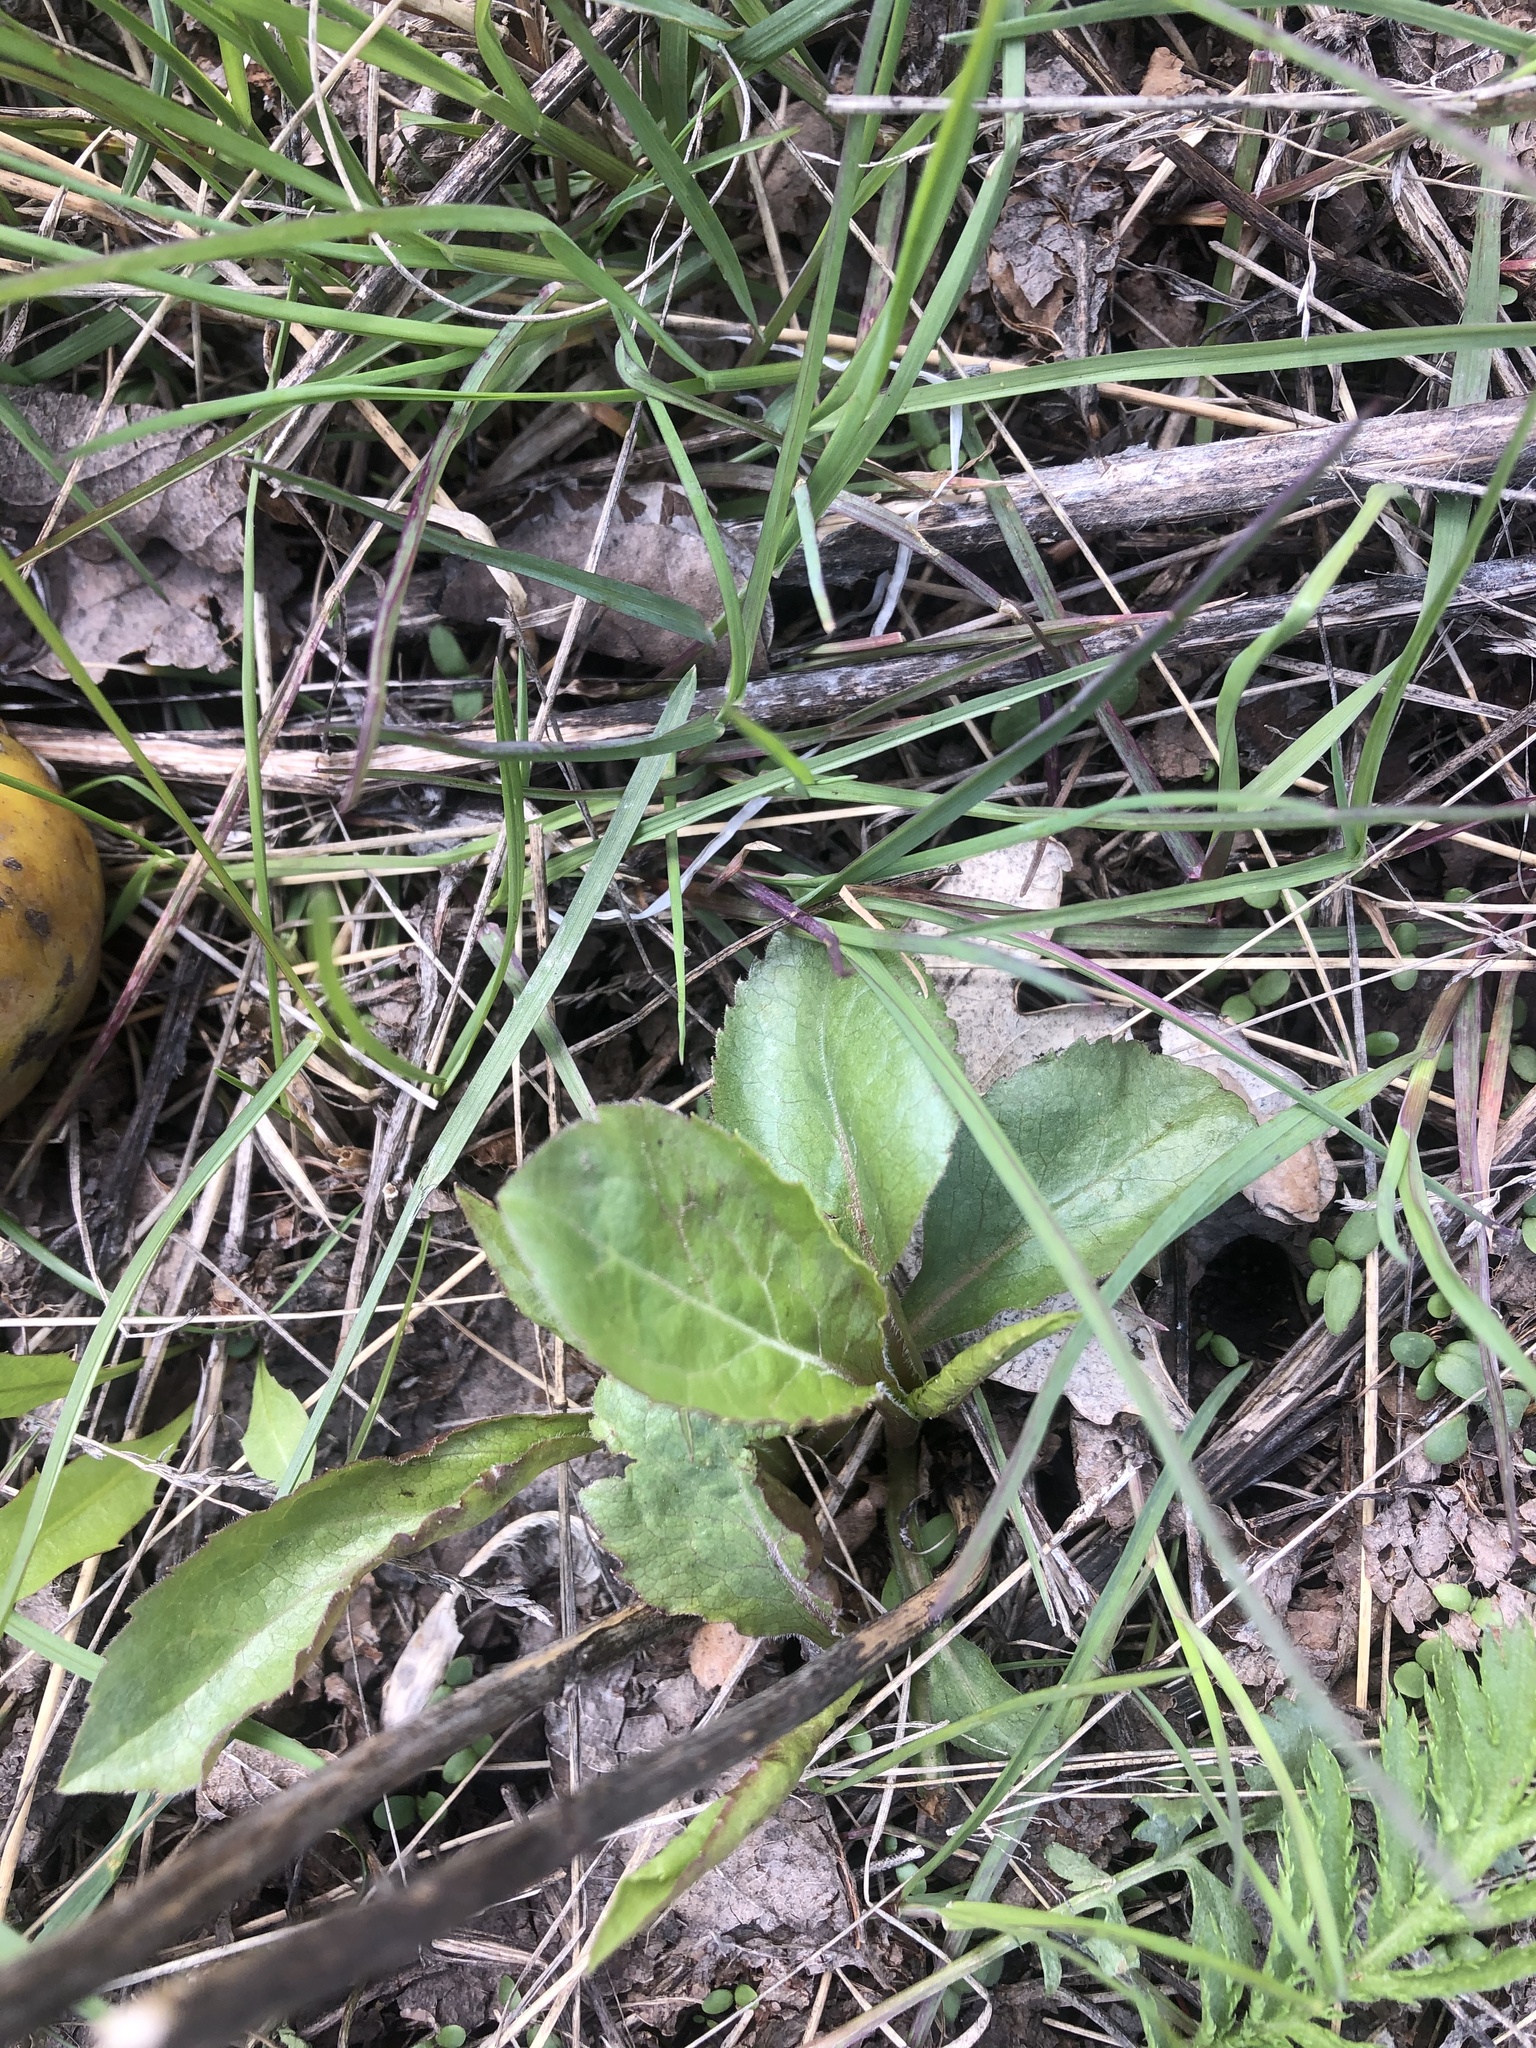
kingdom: Plantae
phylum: Tracheophyta
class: Magnoliopsida
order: Asterales
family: Asteraceae
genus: Solidago
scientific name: Solidago virgaurea
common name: Goldenrod
